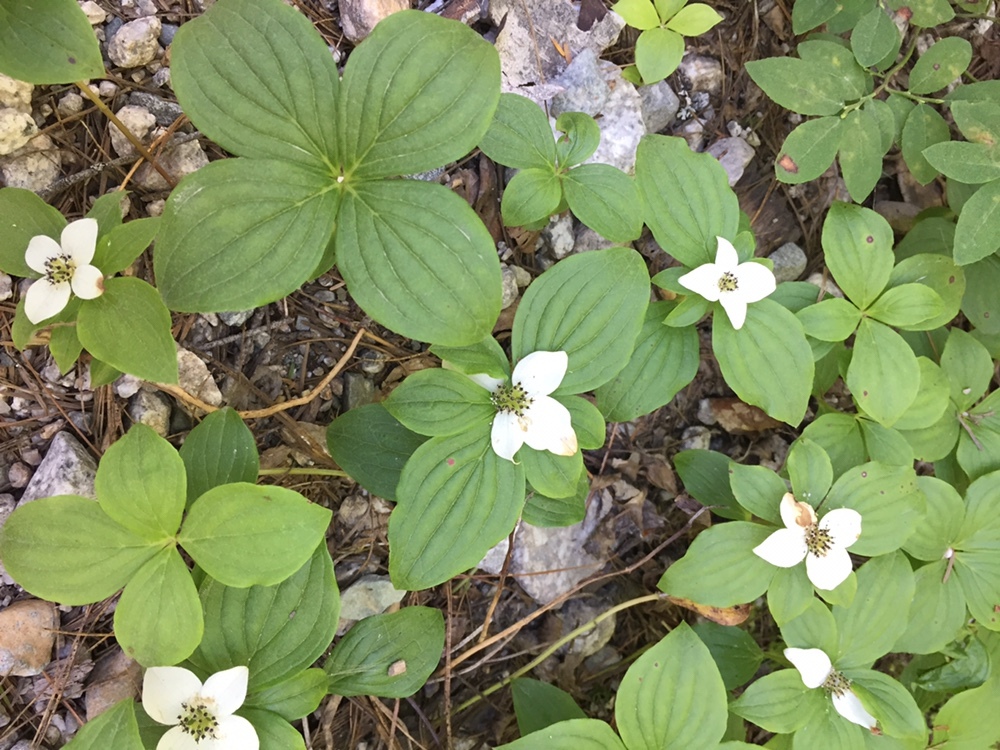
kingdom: Plantae
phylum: Tracheophyta
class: Magnoliopsida
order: Cornales
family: Cornaceae
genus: Cornus
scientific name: Cornus unalaschkensis
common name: Alaska bunchberry
